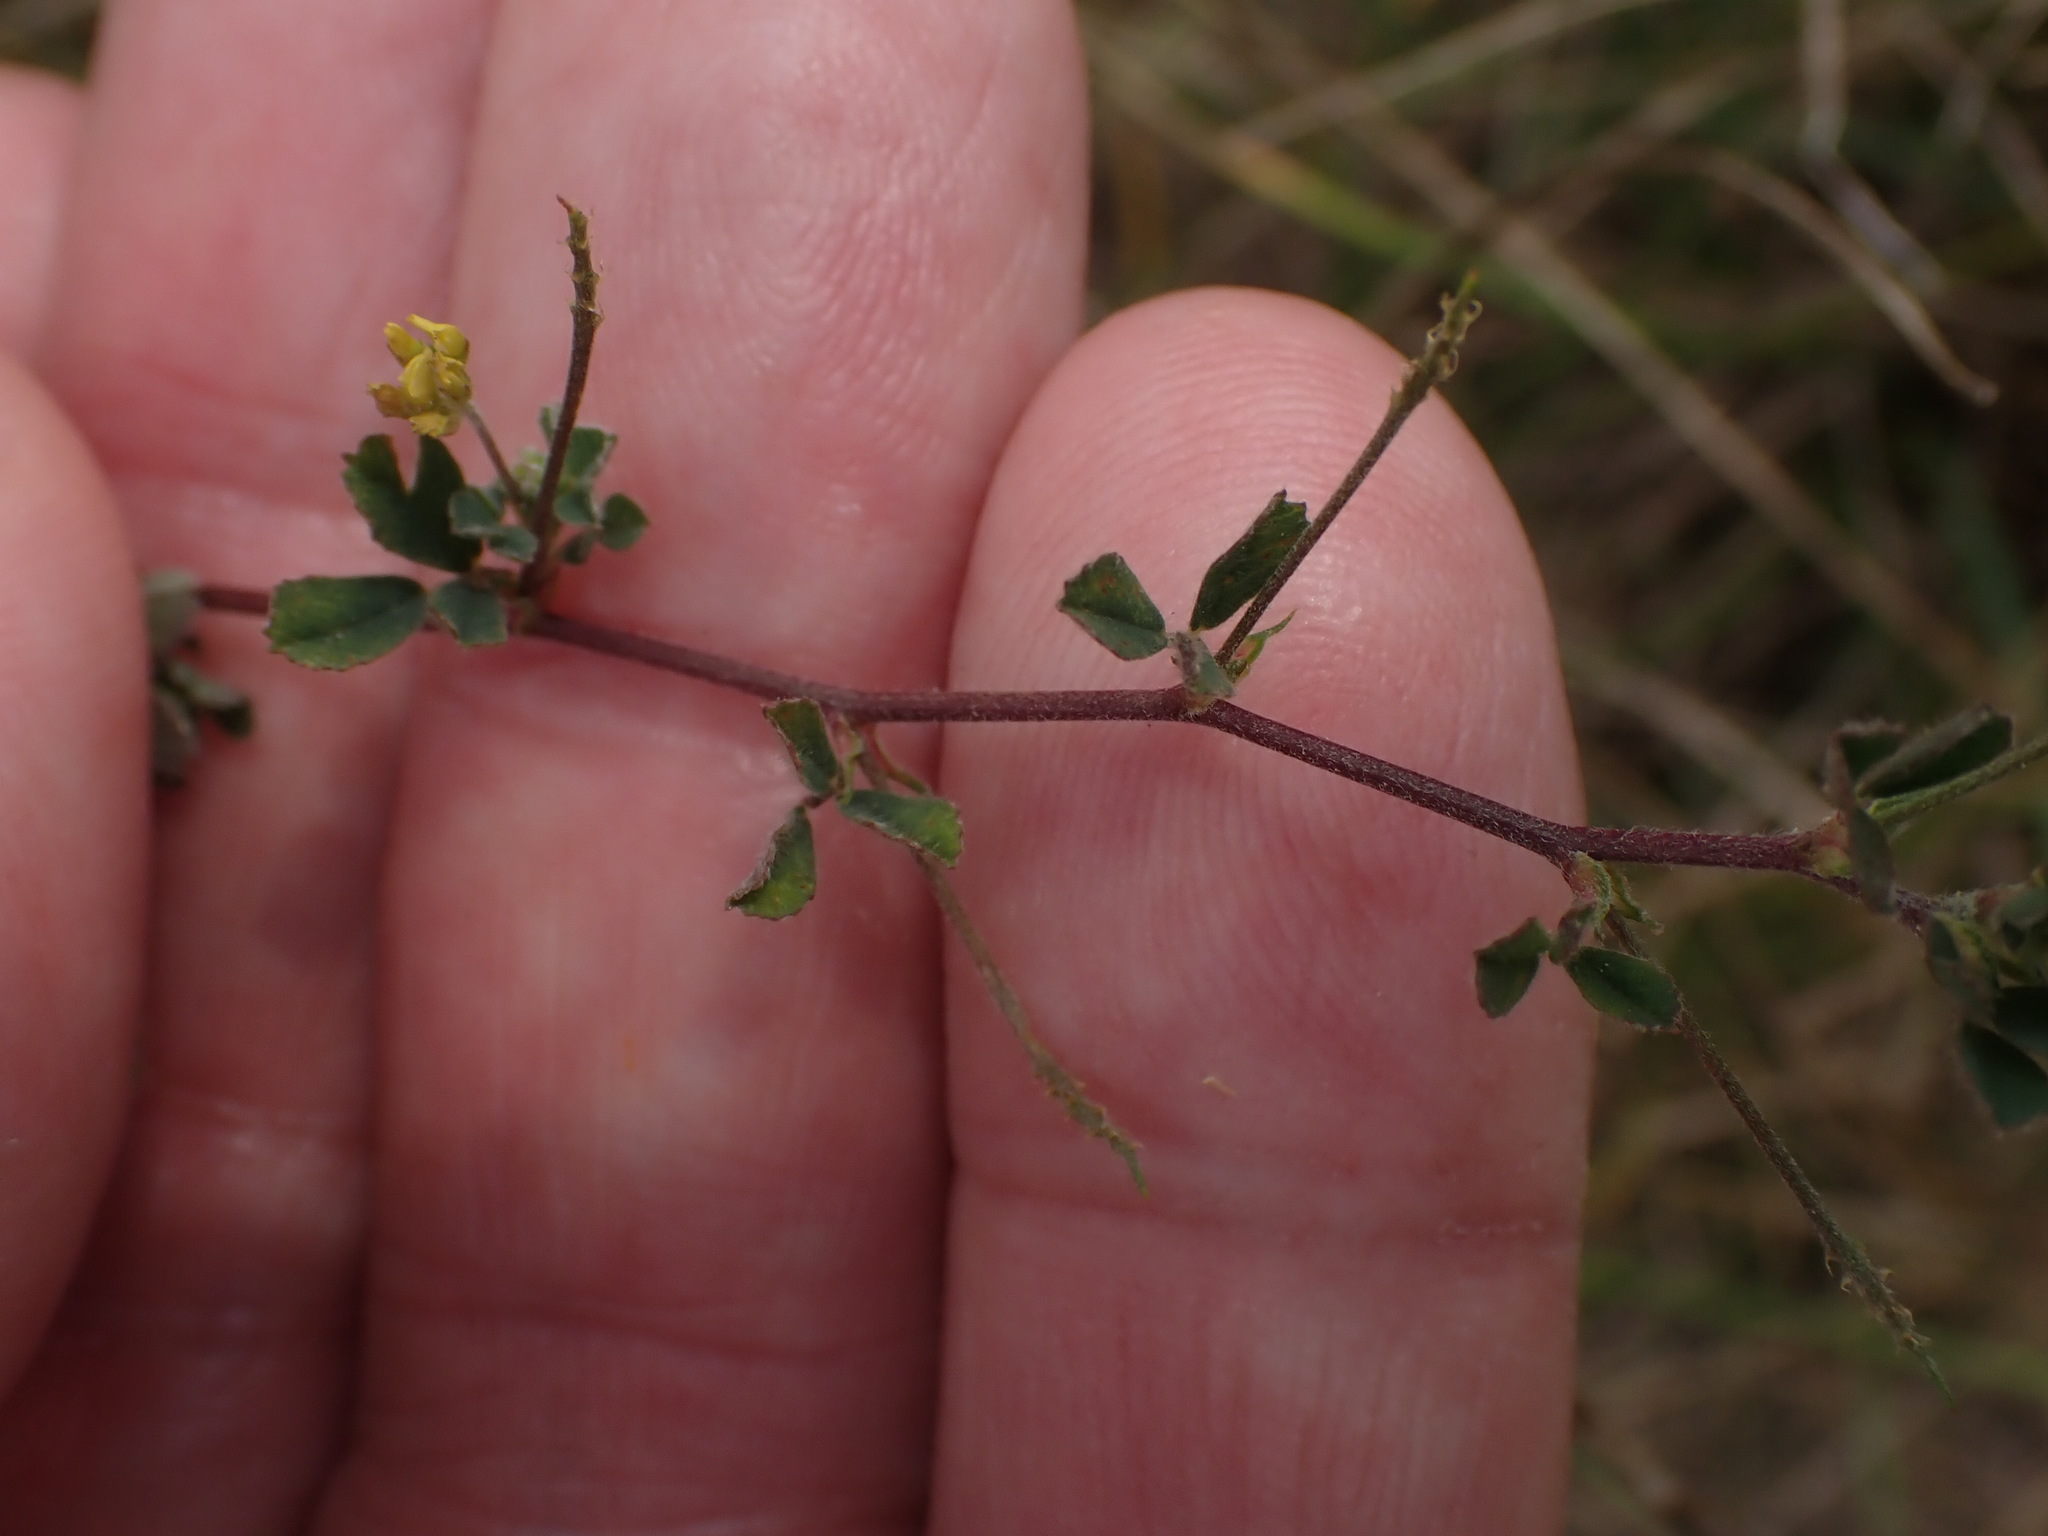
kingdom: Plantae
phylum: Tracheophyta
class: Magnoliopsida
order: Fabales
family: Fabaceae
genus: Medicago
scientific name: Medicago lupulina
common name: Black medick
